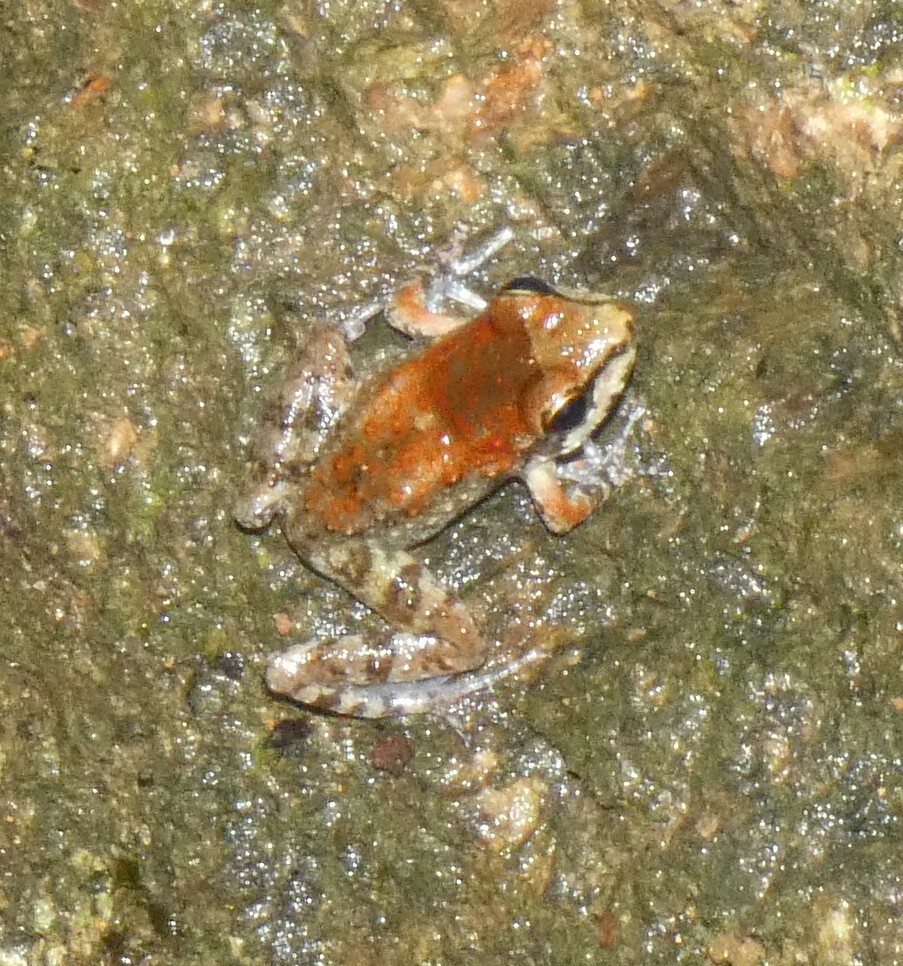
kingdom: Animalia
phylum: Chordata
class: Amphibia
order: Anura
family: Cycloramphidae
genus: Thoropa
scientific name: Thoropa miliaris
